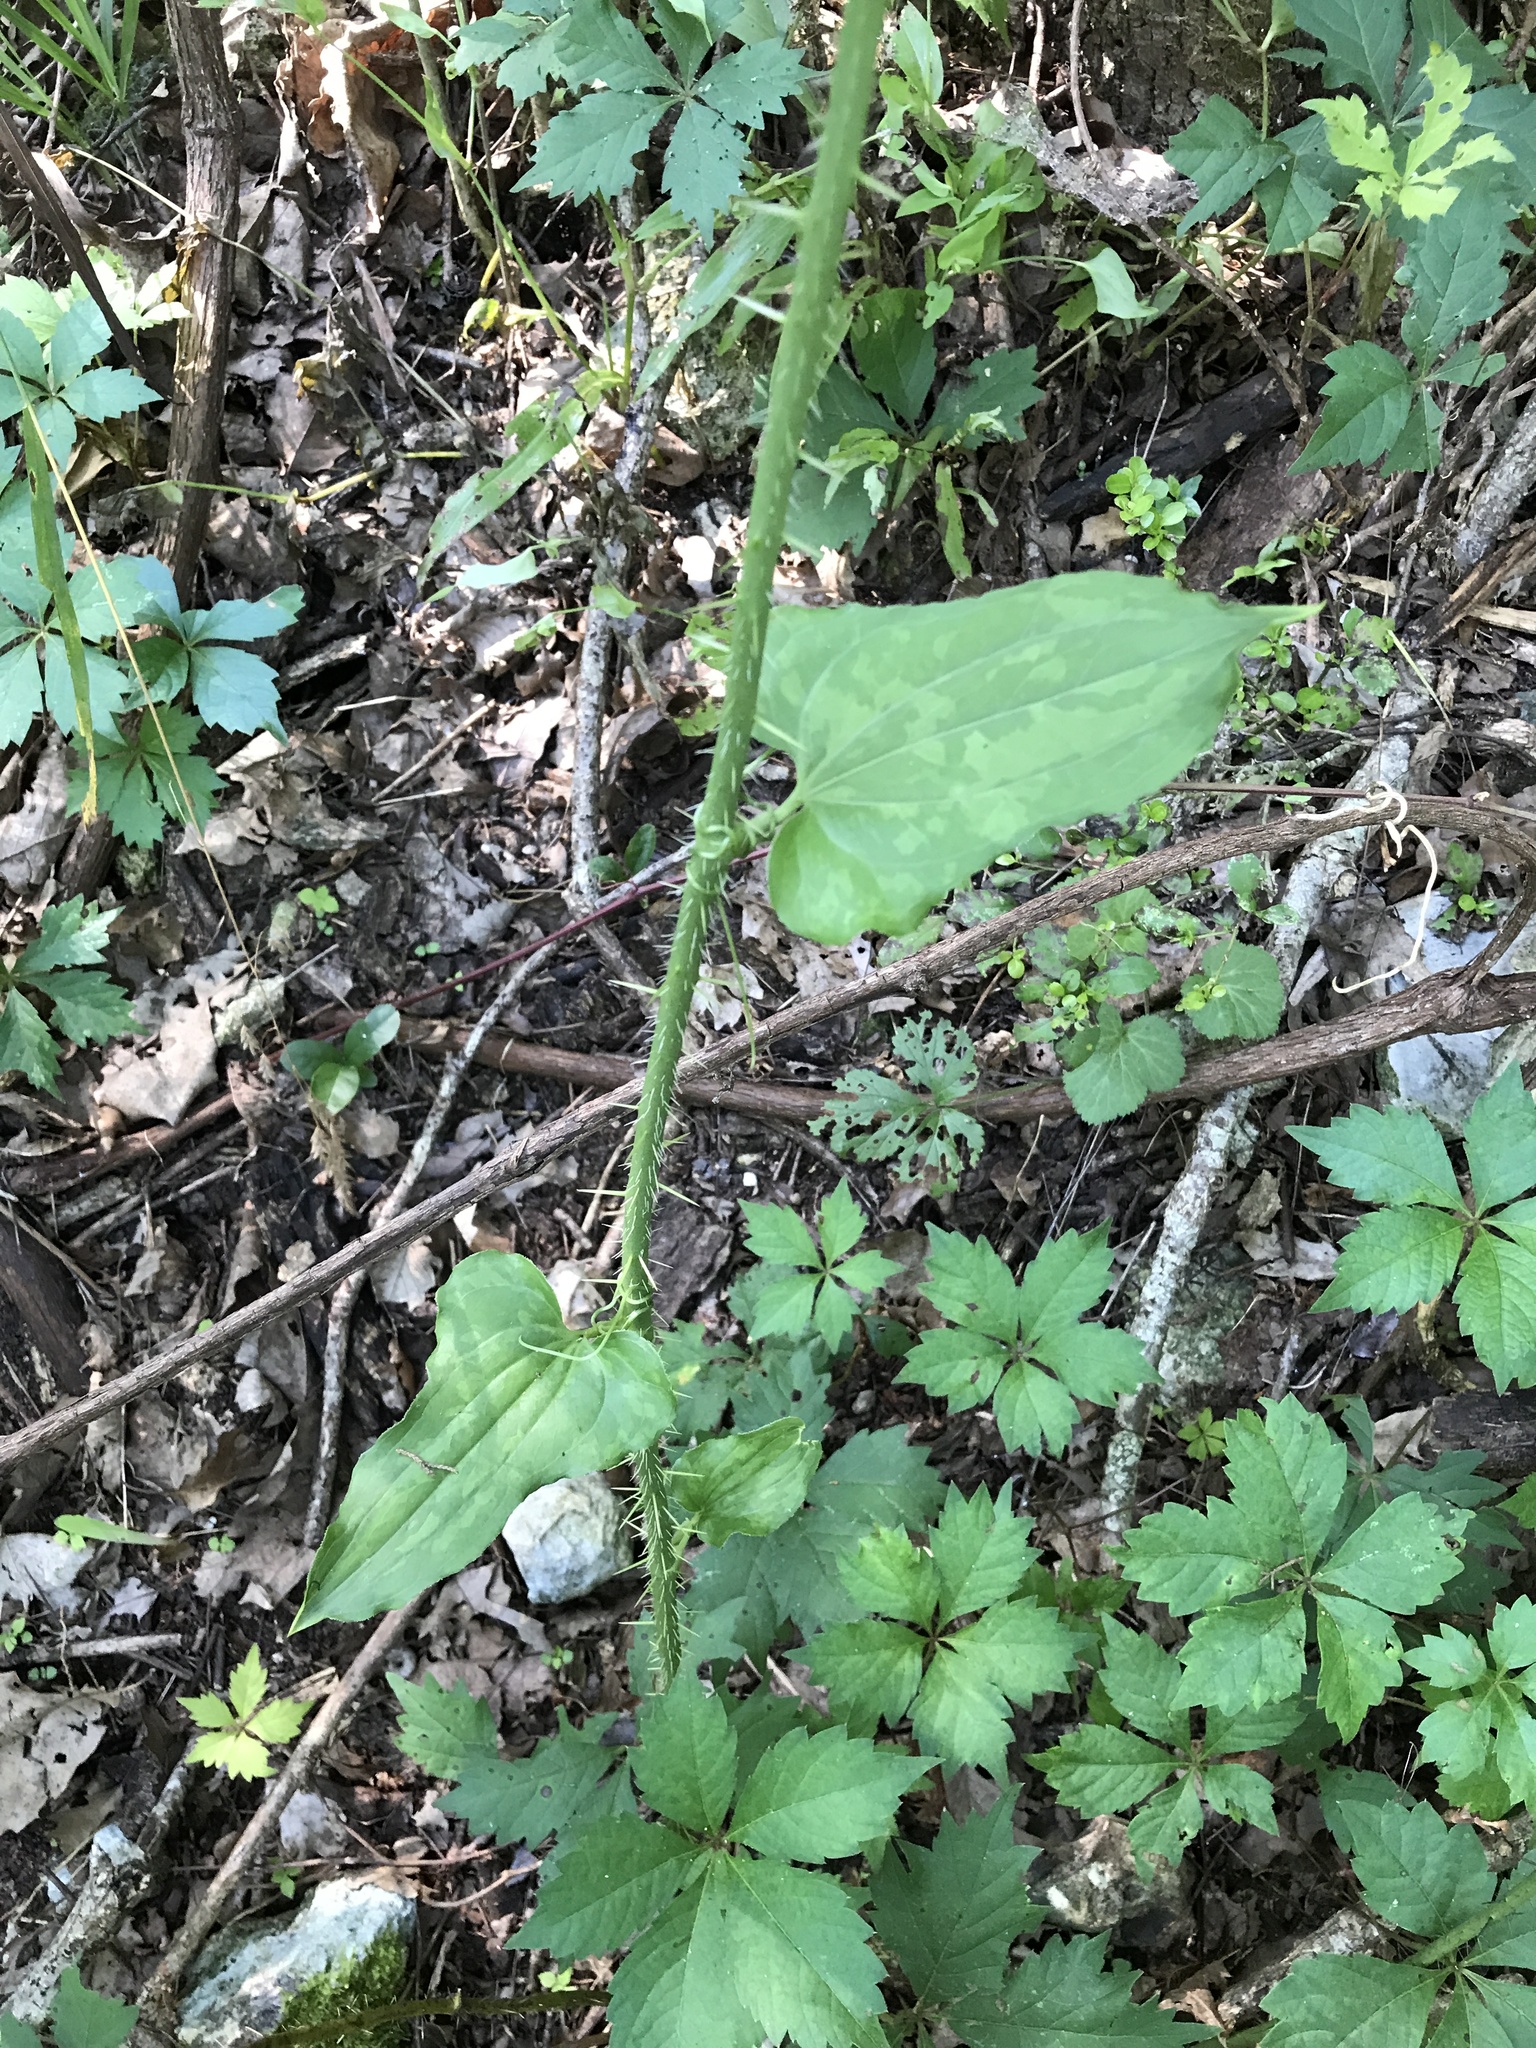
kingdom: Plantae
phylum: Tracheophyta
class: Liliopsida
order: Liliales
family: Smilacaceae
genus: Smilax
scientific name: Smilax tamnoides
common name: Hellfetter
